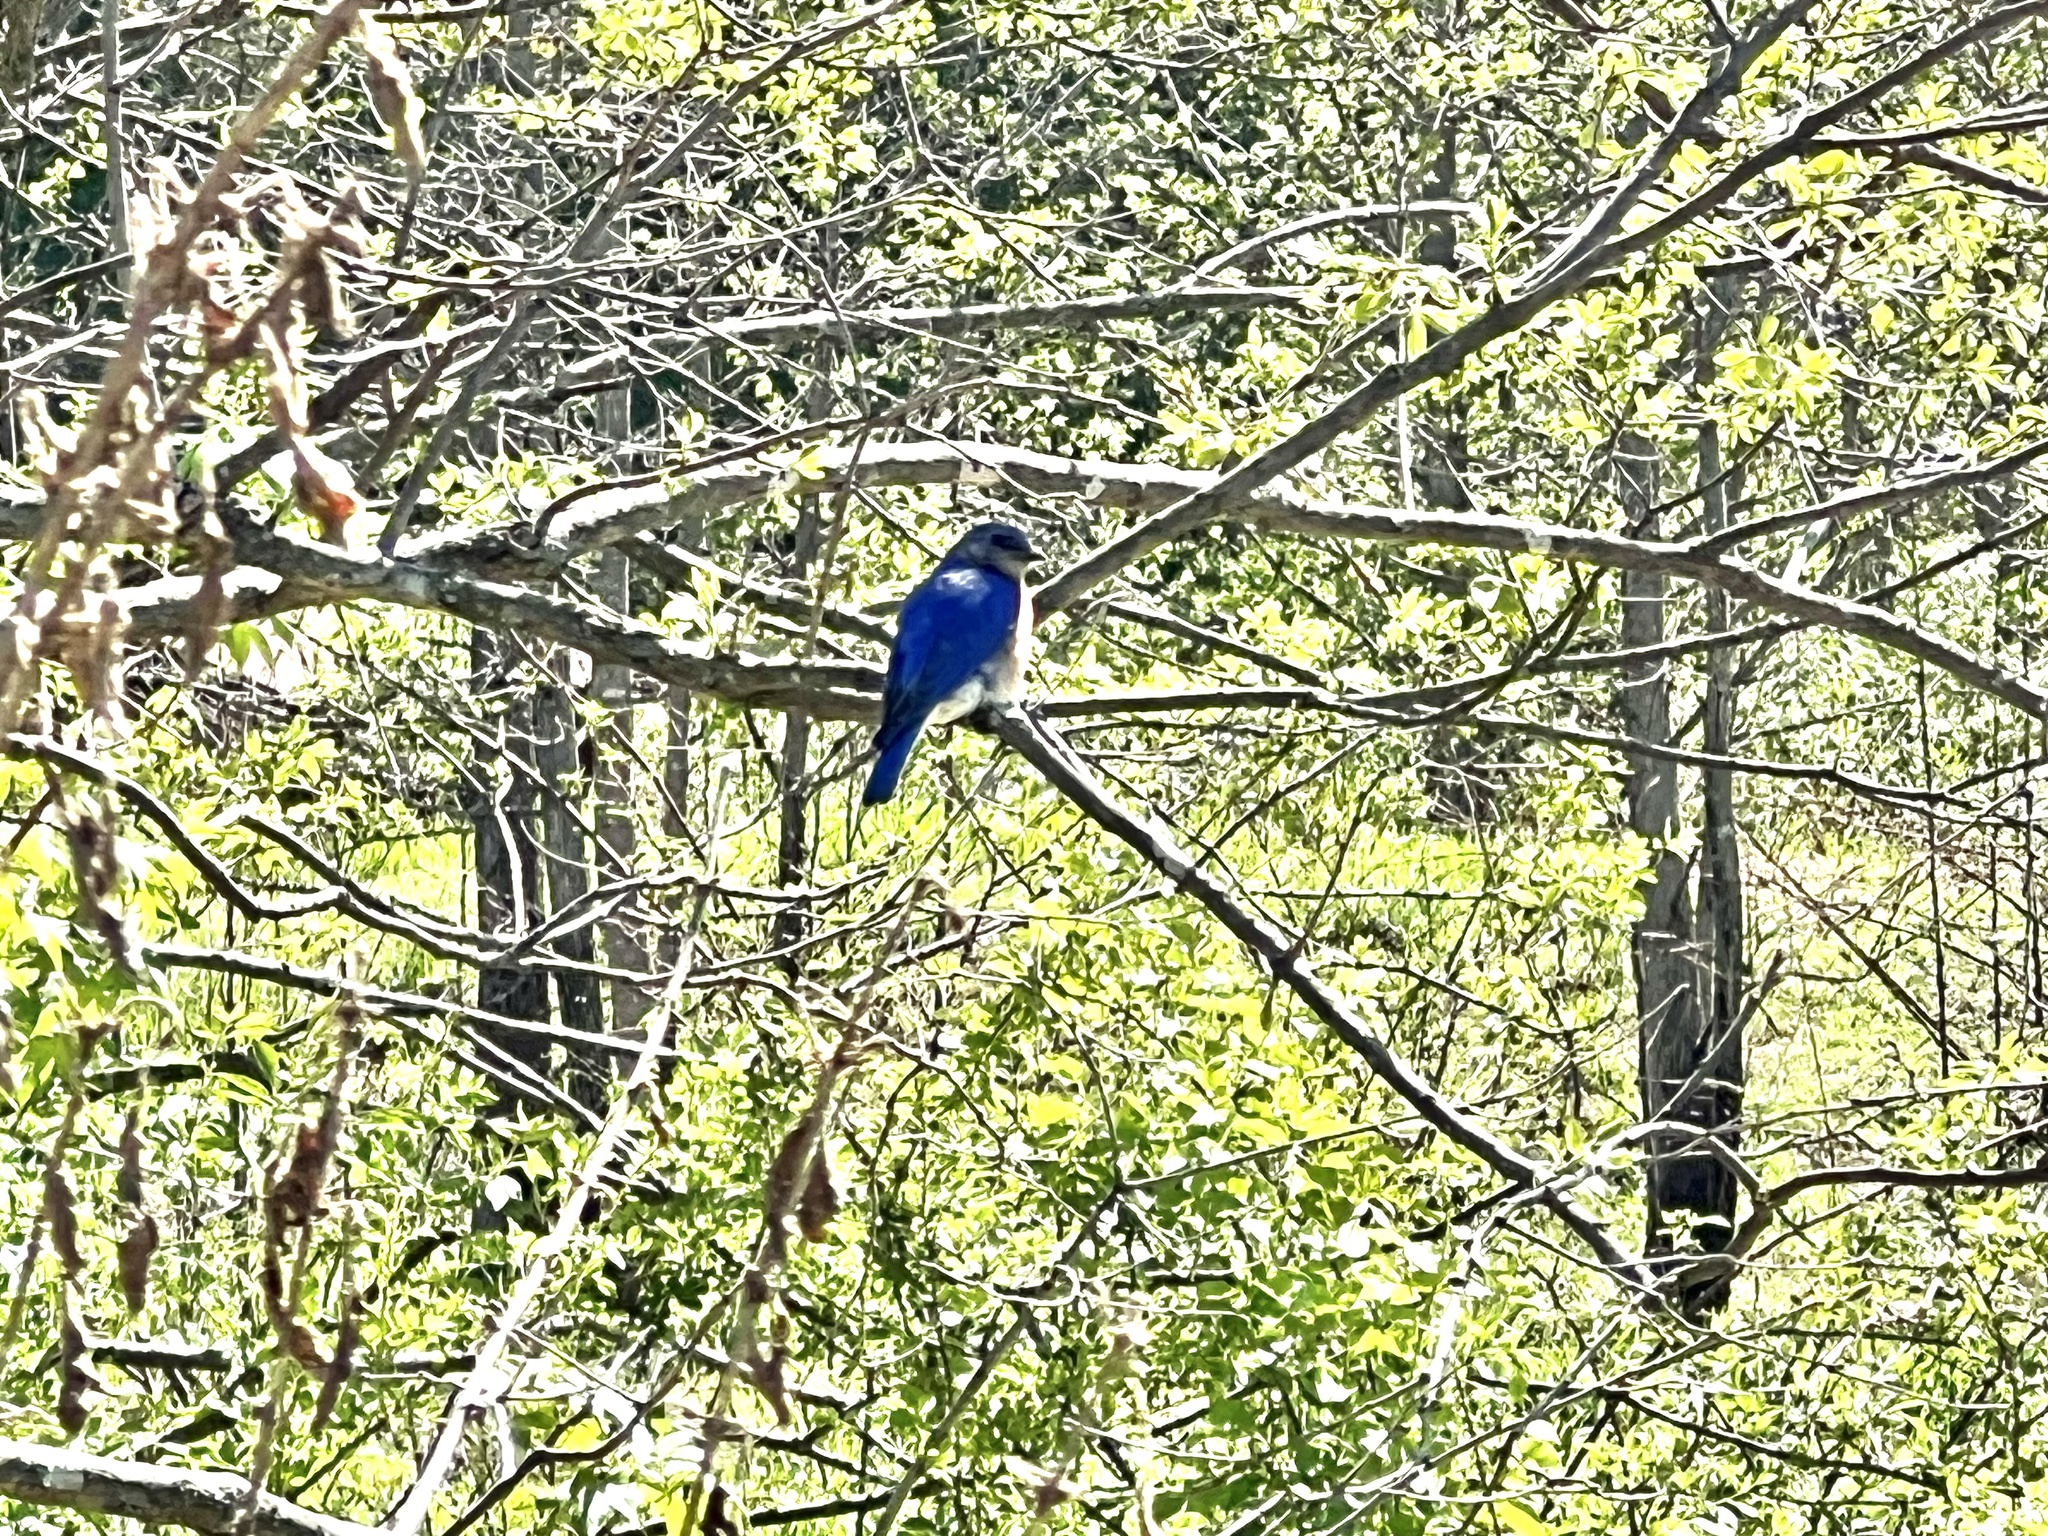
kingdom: Animalia
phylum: Chordata
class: Aves
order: Passeriformes
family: Turdidae
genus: Sialia
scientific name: Sialia sialis
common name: Eastern bluebird
